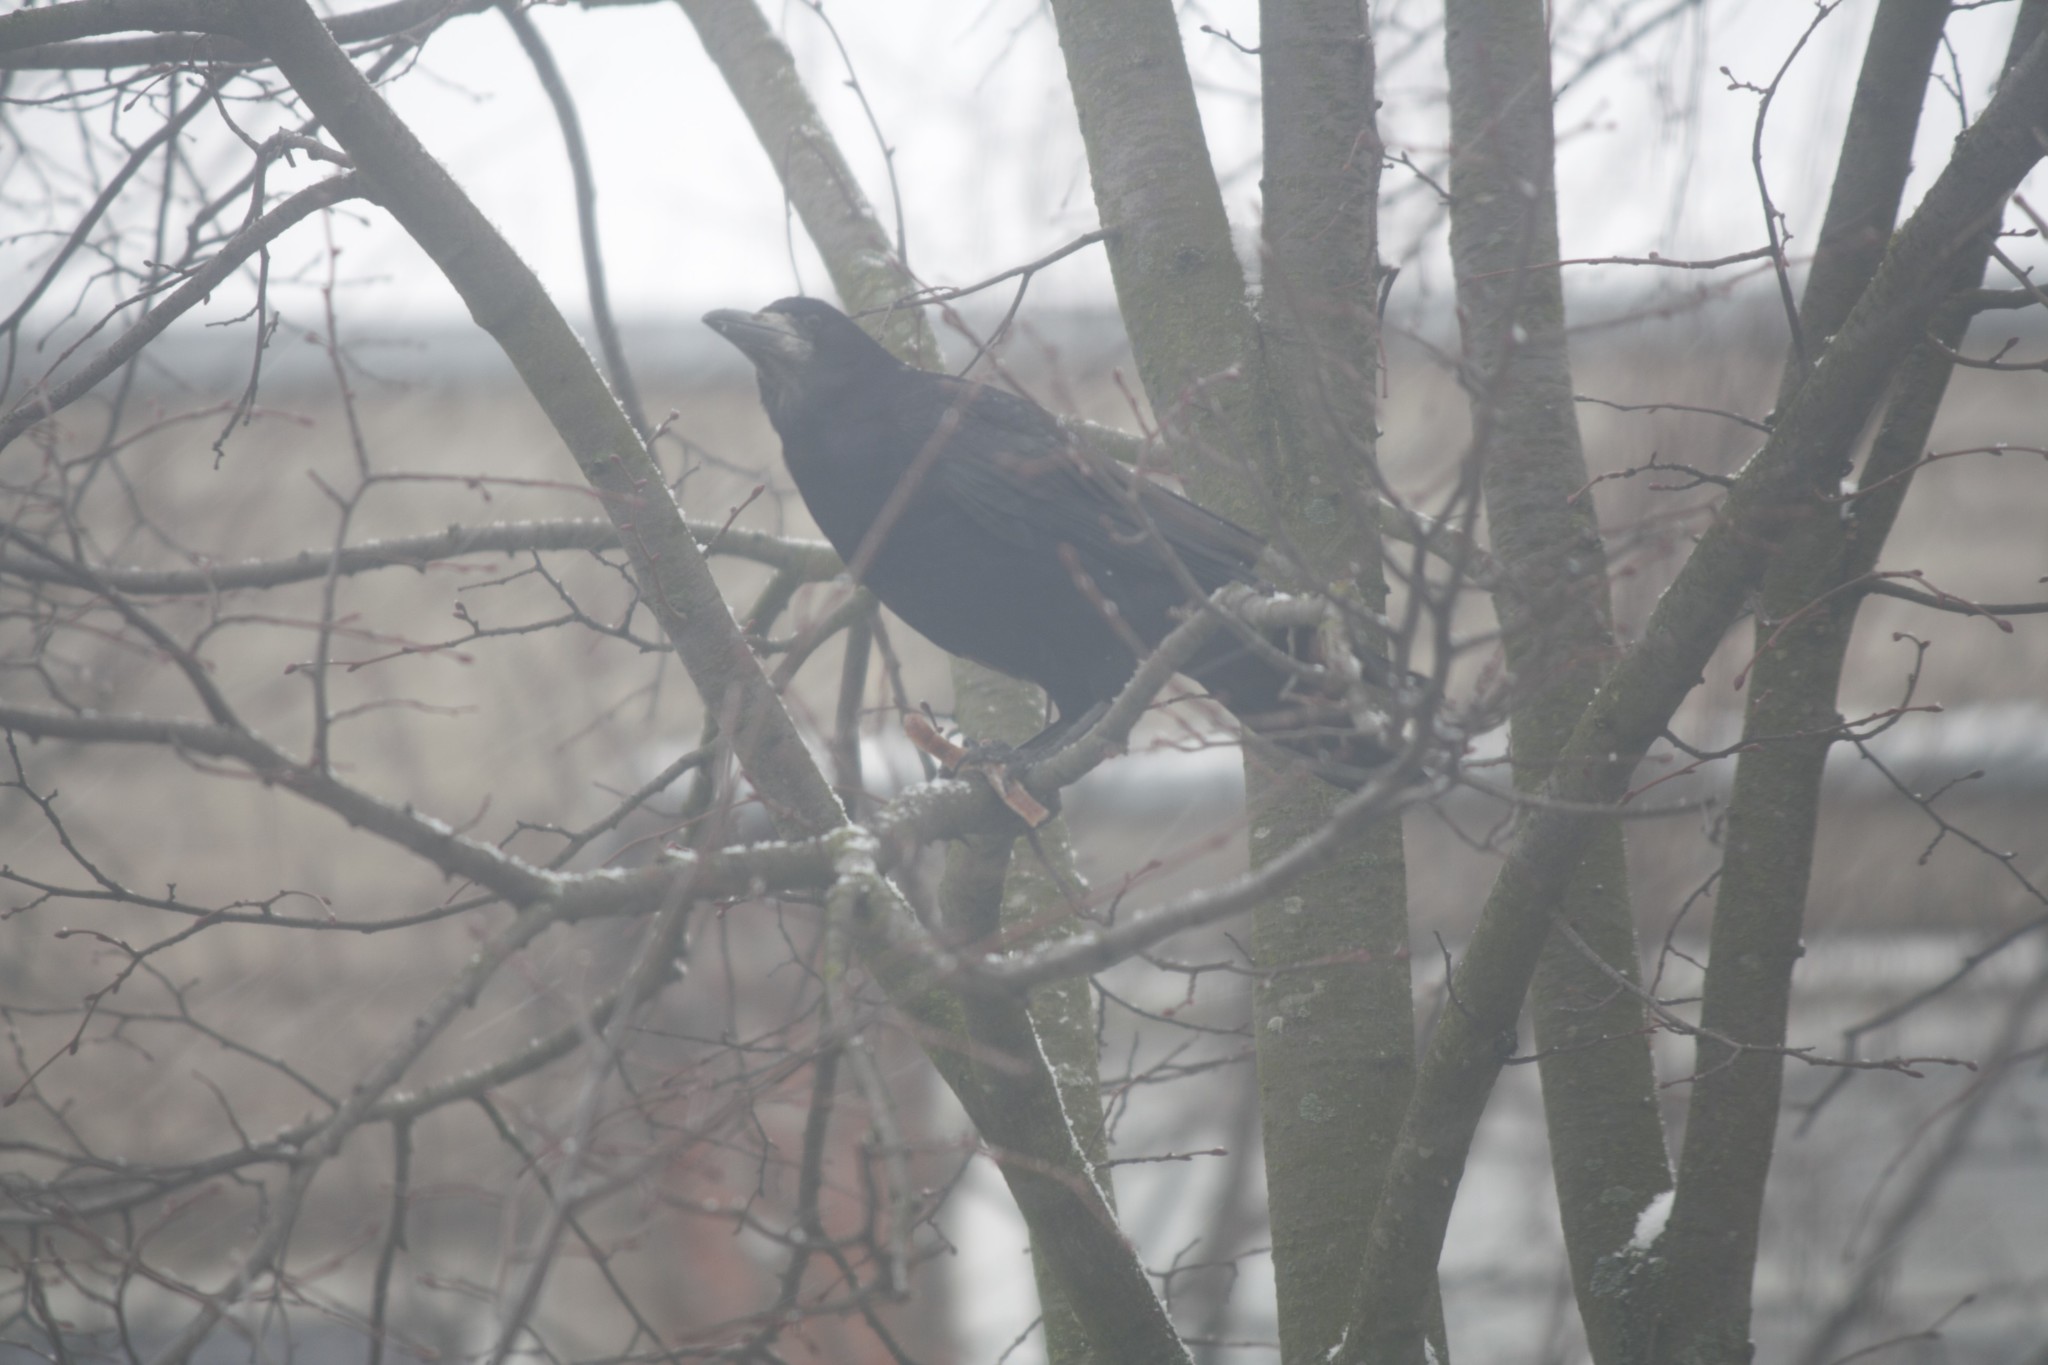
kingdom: Animalia
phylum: Chordata
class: Aves
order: Passeriformes
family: Corvidae
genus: Corvus
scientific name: Corvus frugilegus
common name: Rook
